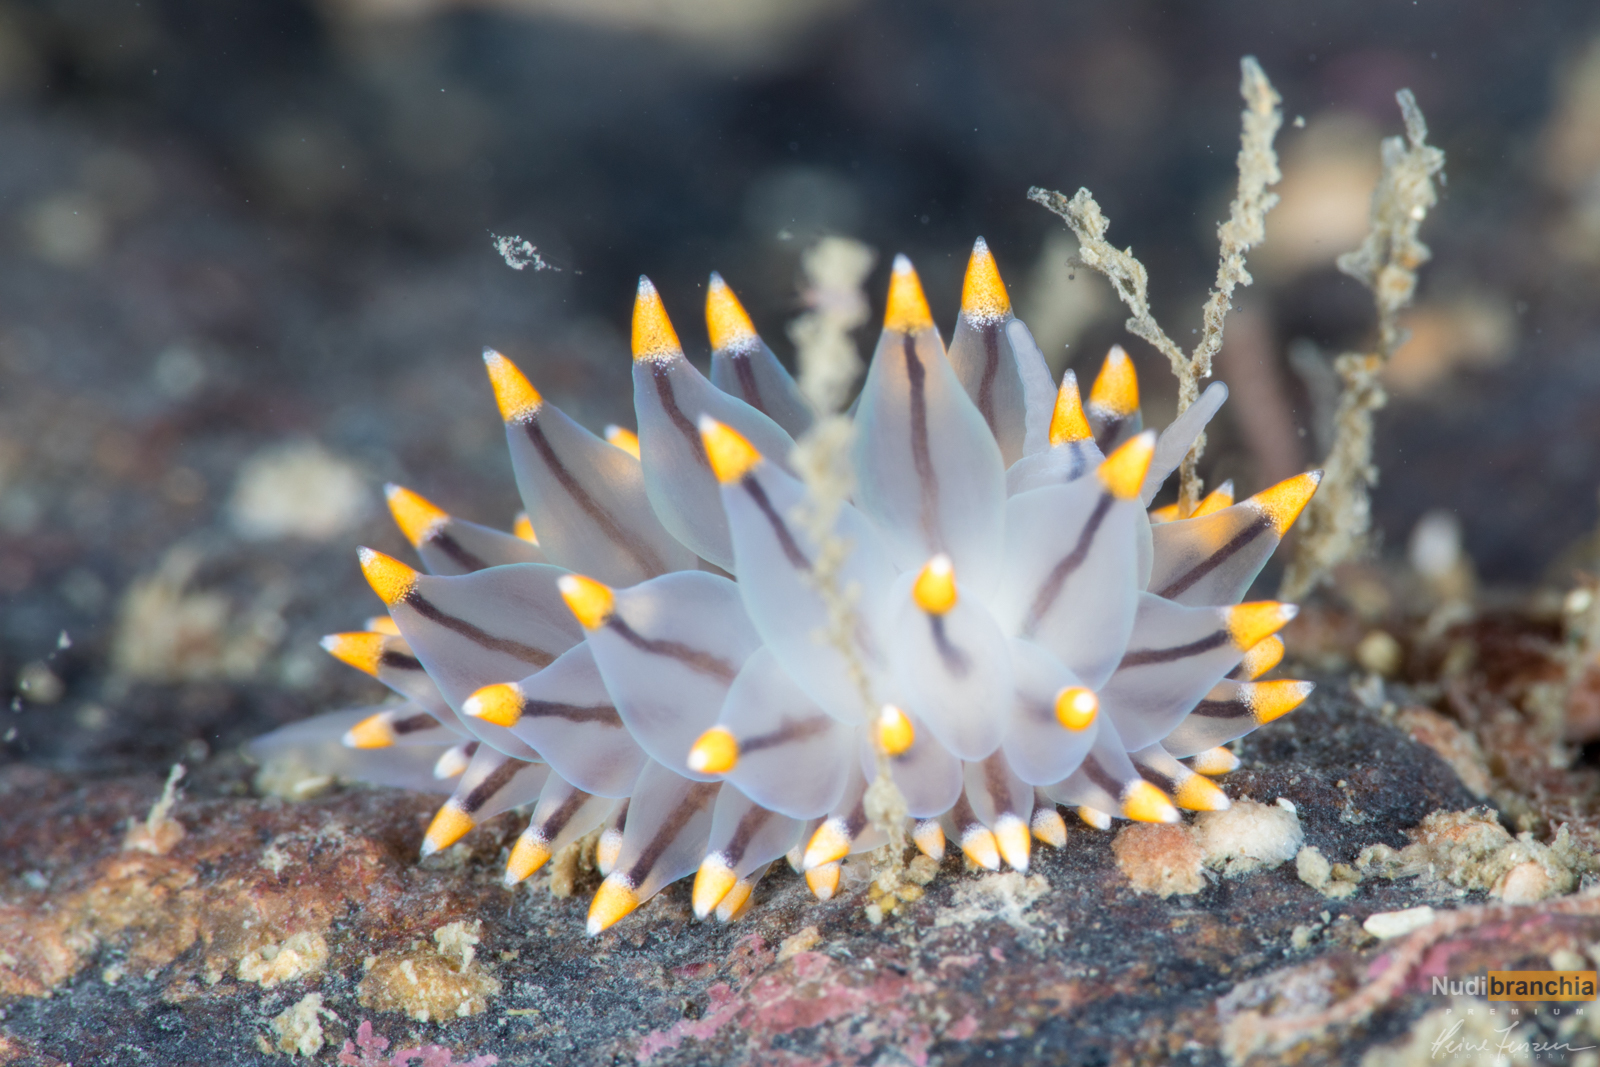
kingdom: Animalia
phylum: Mollusca
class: Gastropoda
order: Nudibranchia
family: Eubranchidae
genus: Eubranchus
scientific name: Eubranchus tricolor
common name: Painted balloon aeolis
